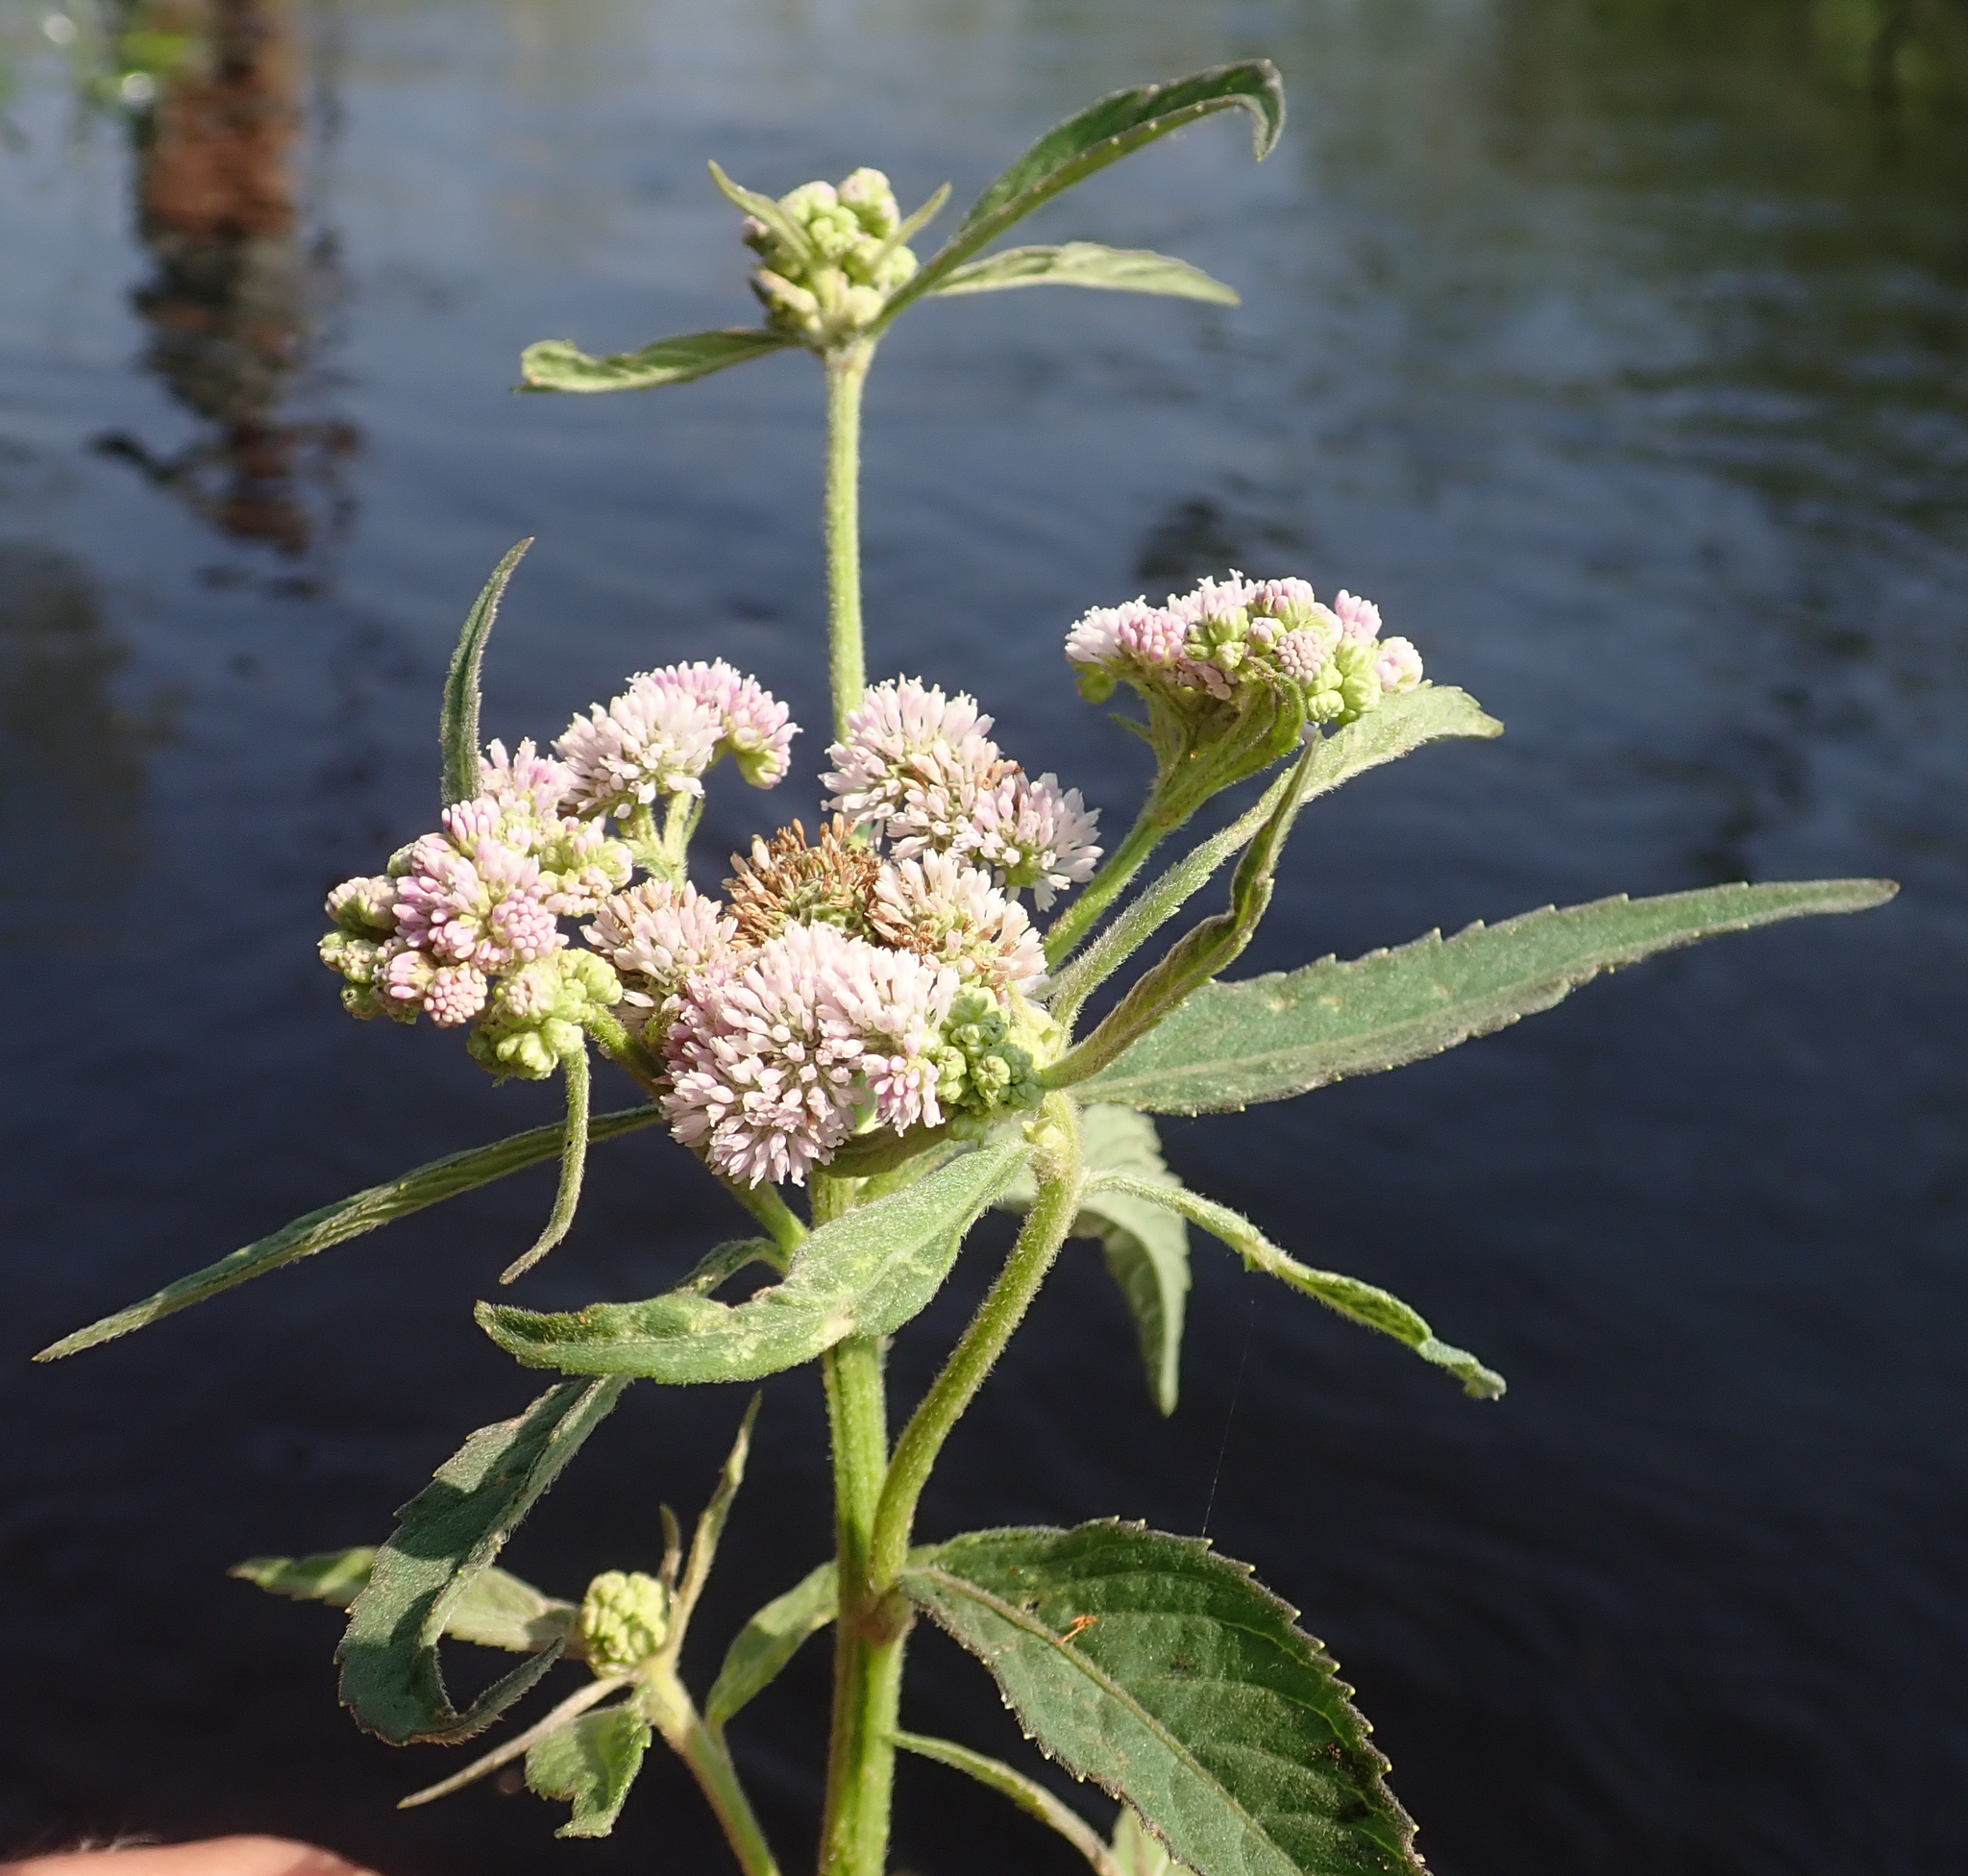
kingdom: Plantae
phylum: Tracheophyta
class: Magnoliopsida
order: Asterales
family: Asteraceae
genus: Ethulia
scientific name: Ethulia conyzoides
